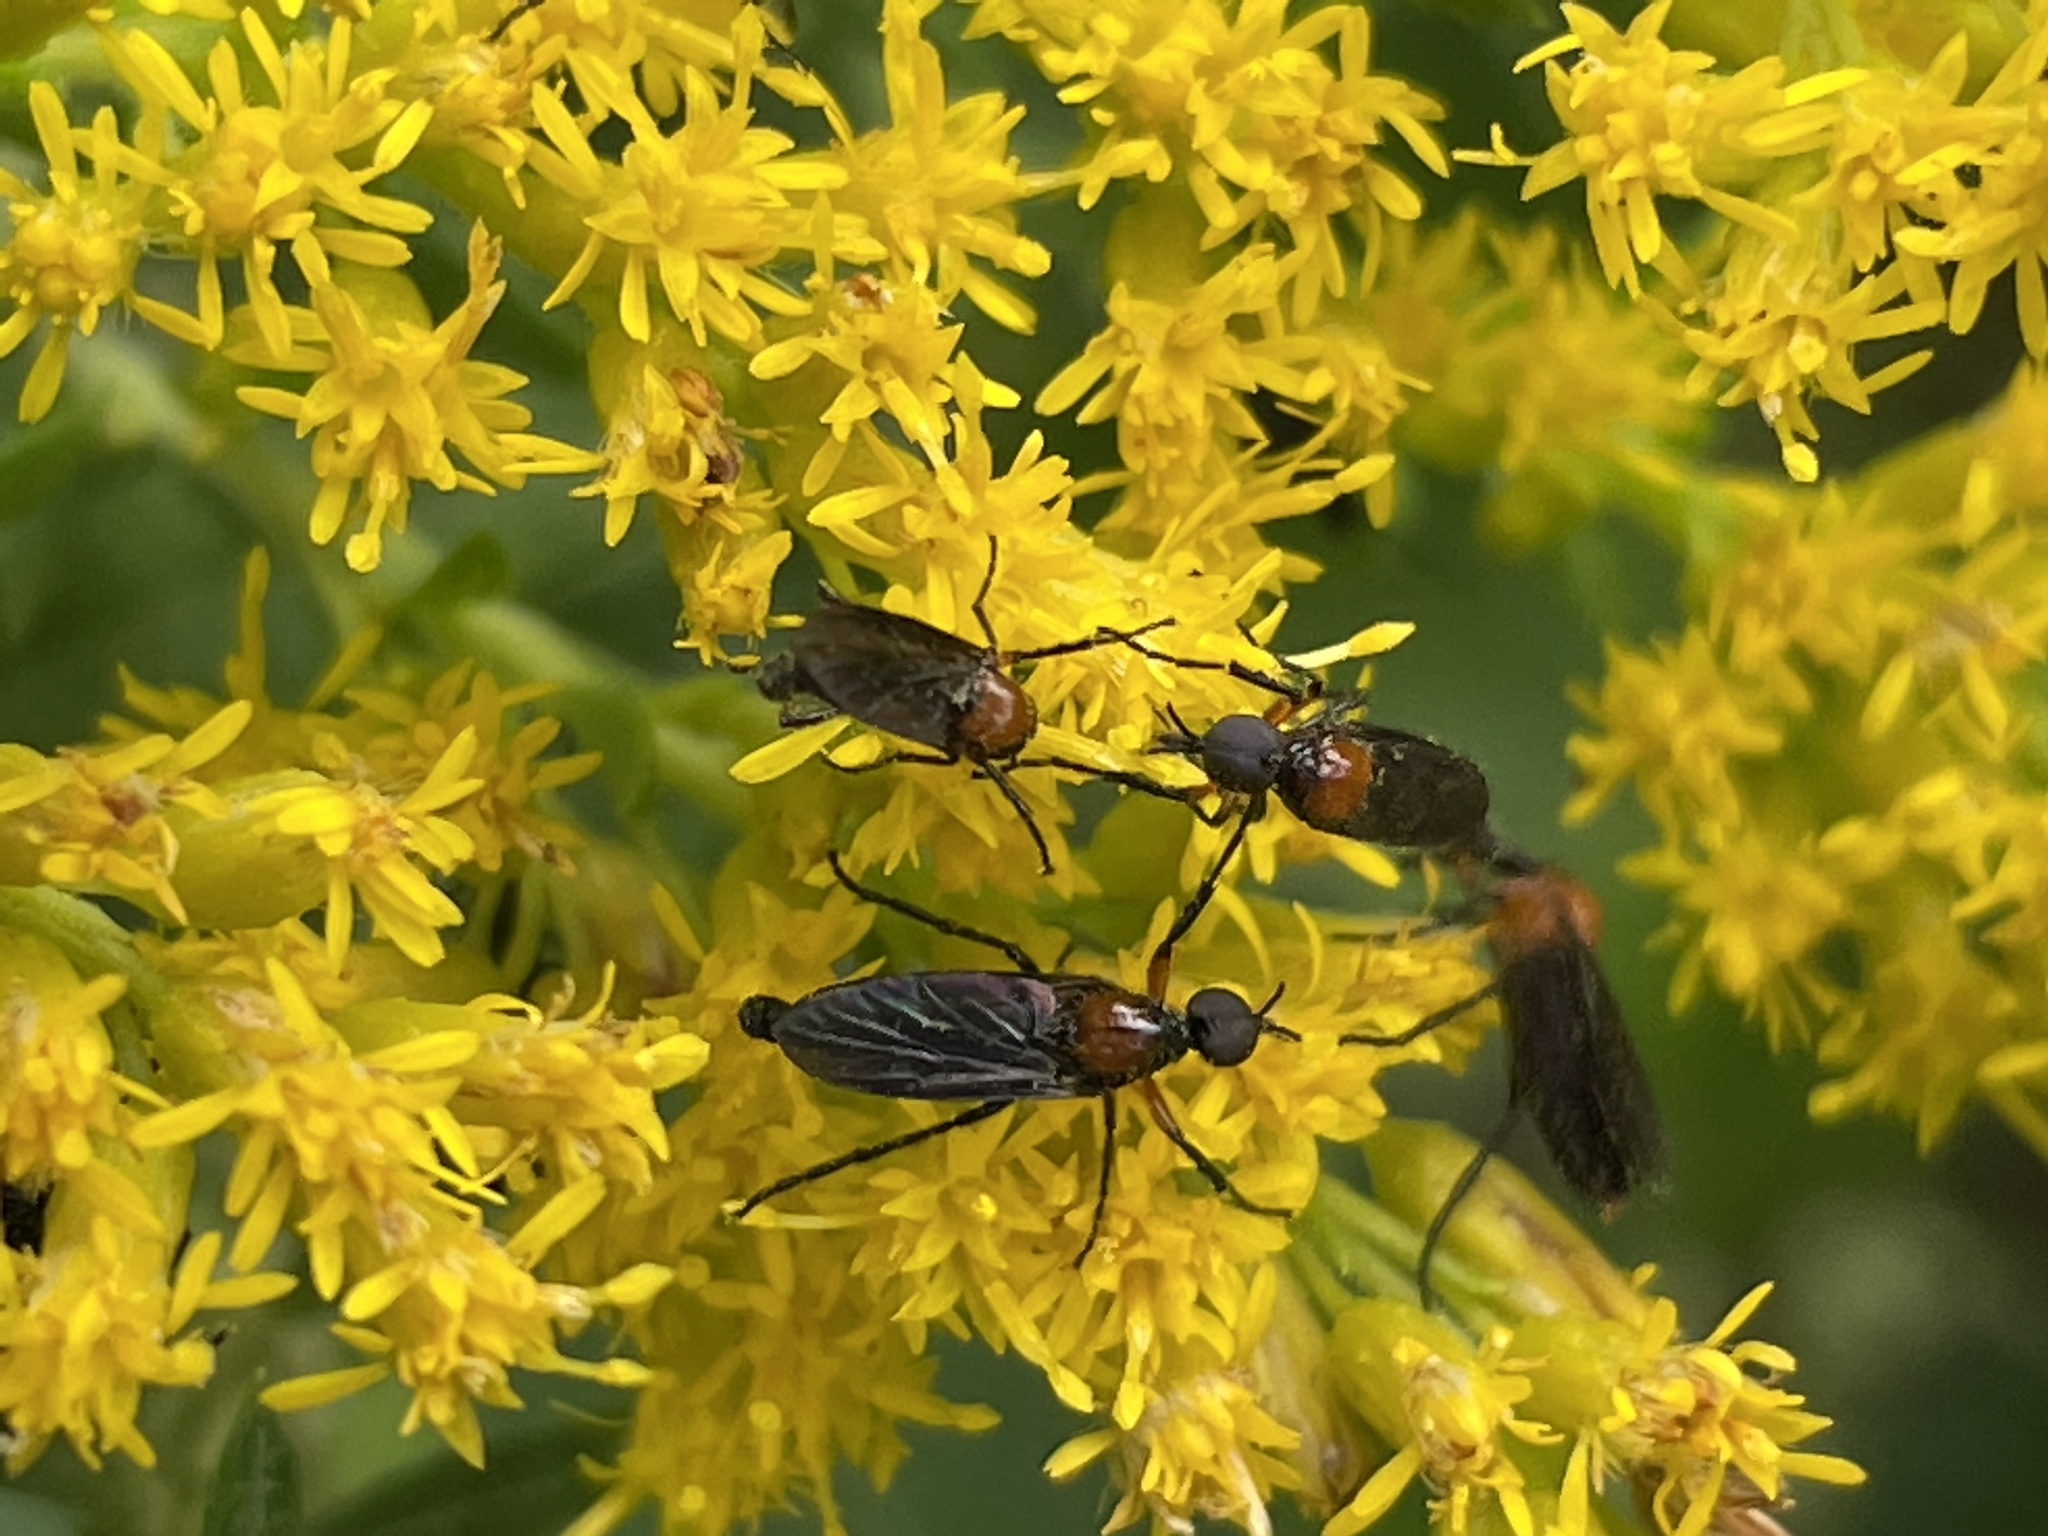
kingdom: Animalia
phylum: Arthropoda
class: Insecta
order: Diptera
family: Bibionidae
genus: Dilophus
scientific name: Dilophus spinipes
